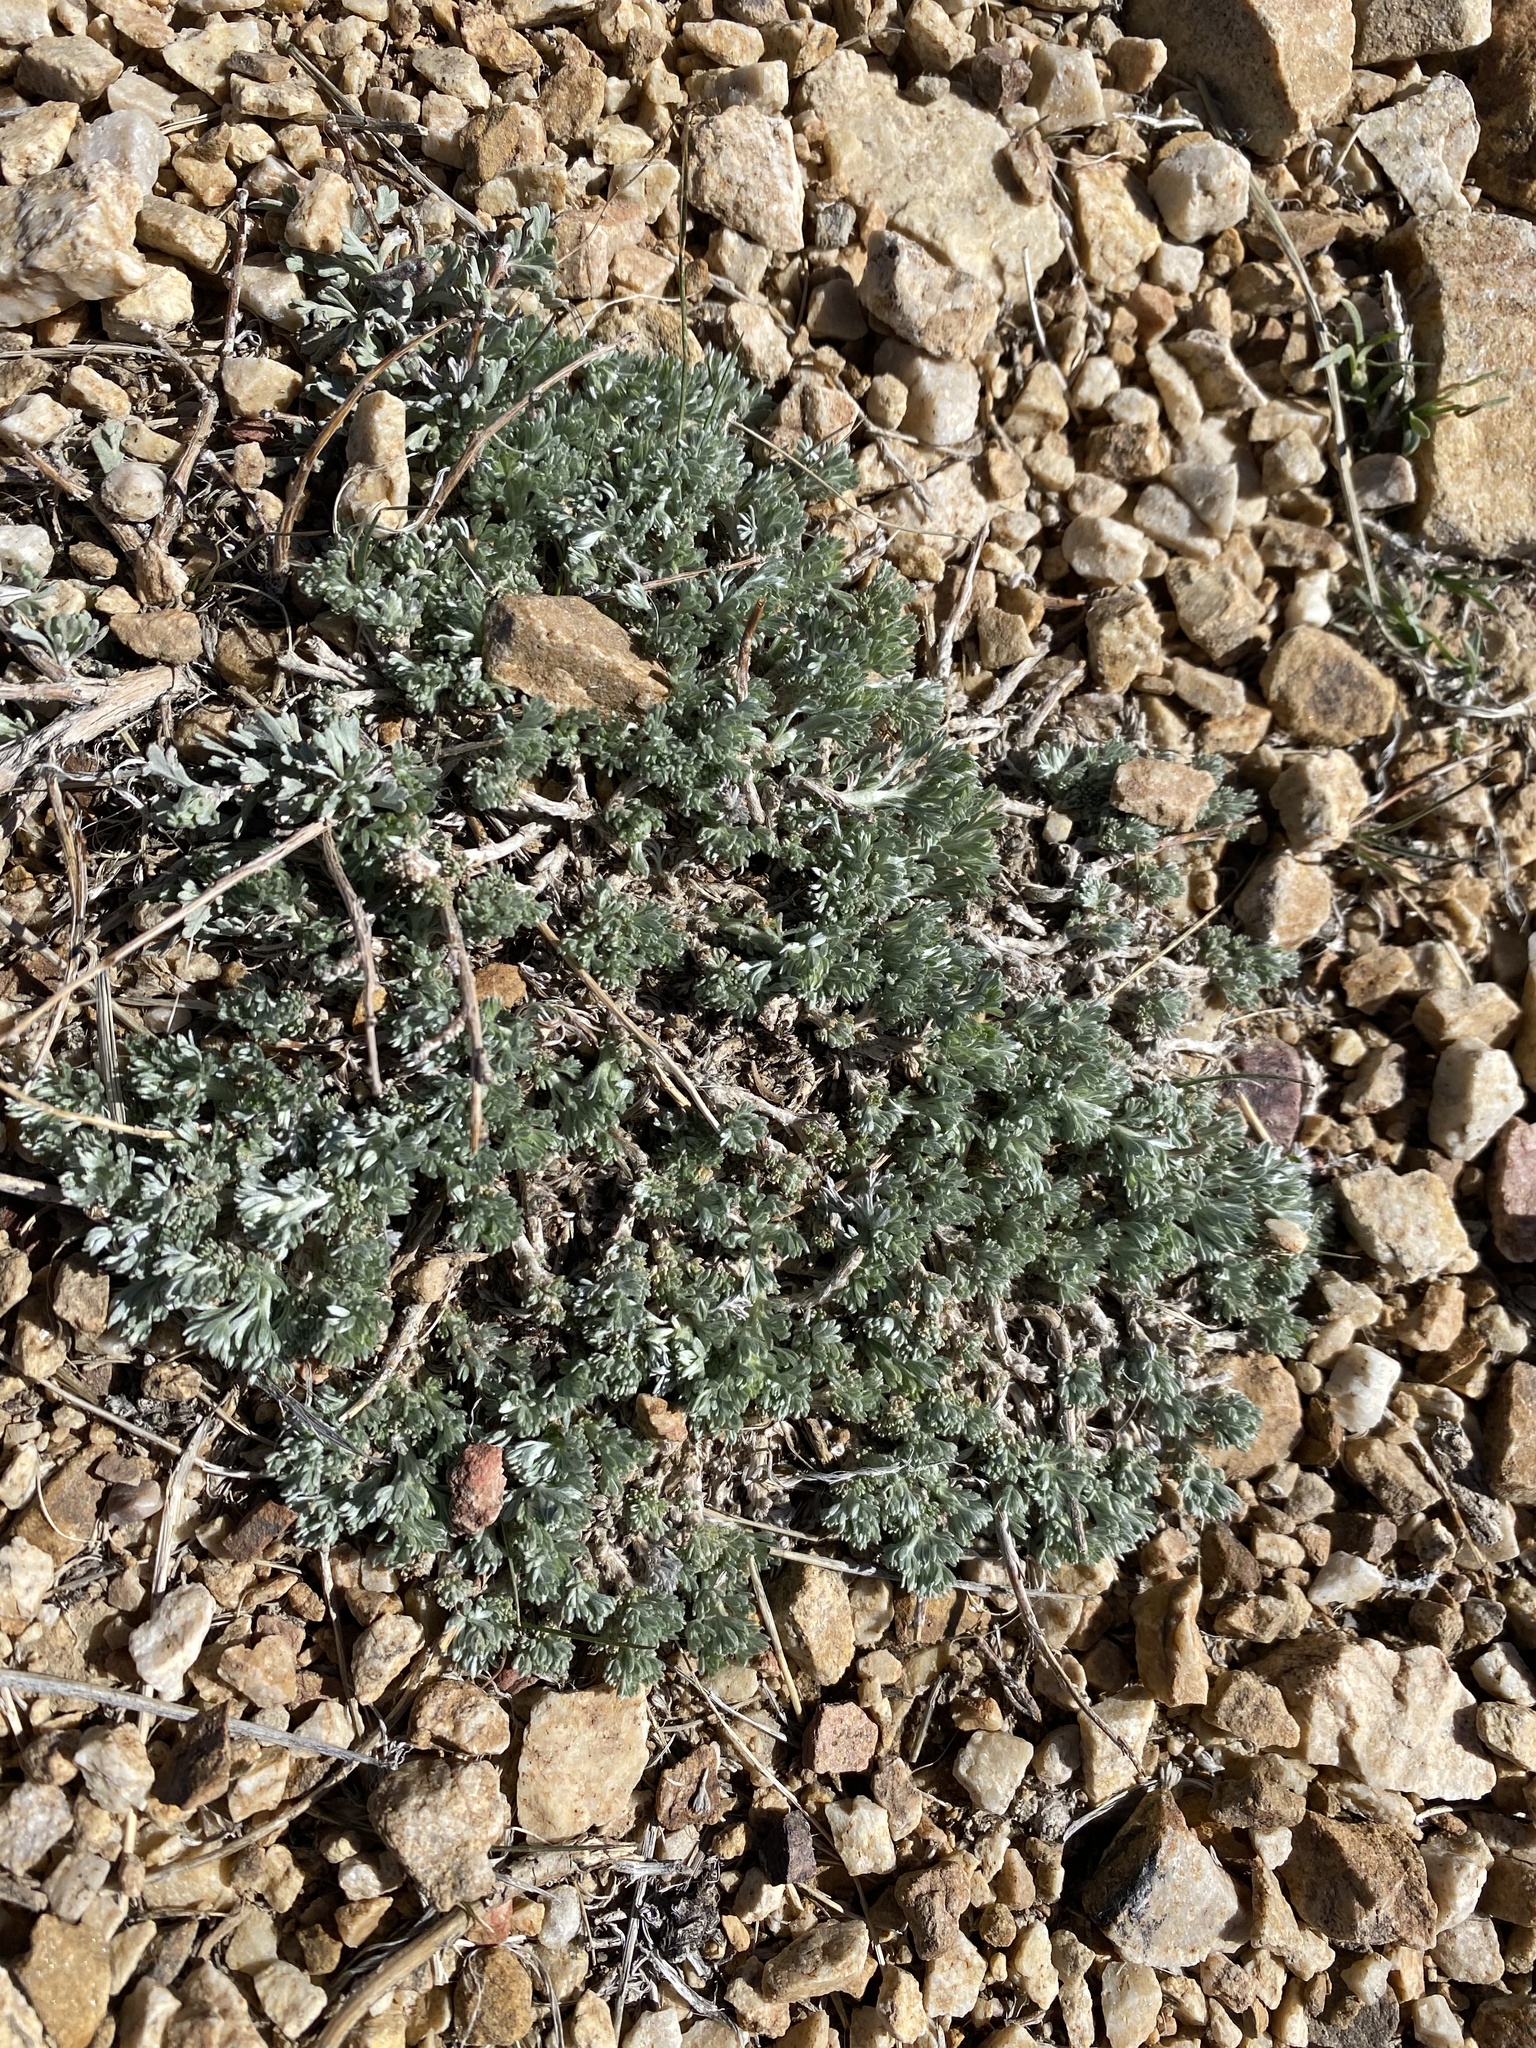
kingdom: Plantae
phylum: Tracheophyta
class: Magnoliopsida
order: Asterales
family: Asteraceae
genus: Artemisia
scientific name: Artemisia frigida
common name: Prairie sagewort
